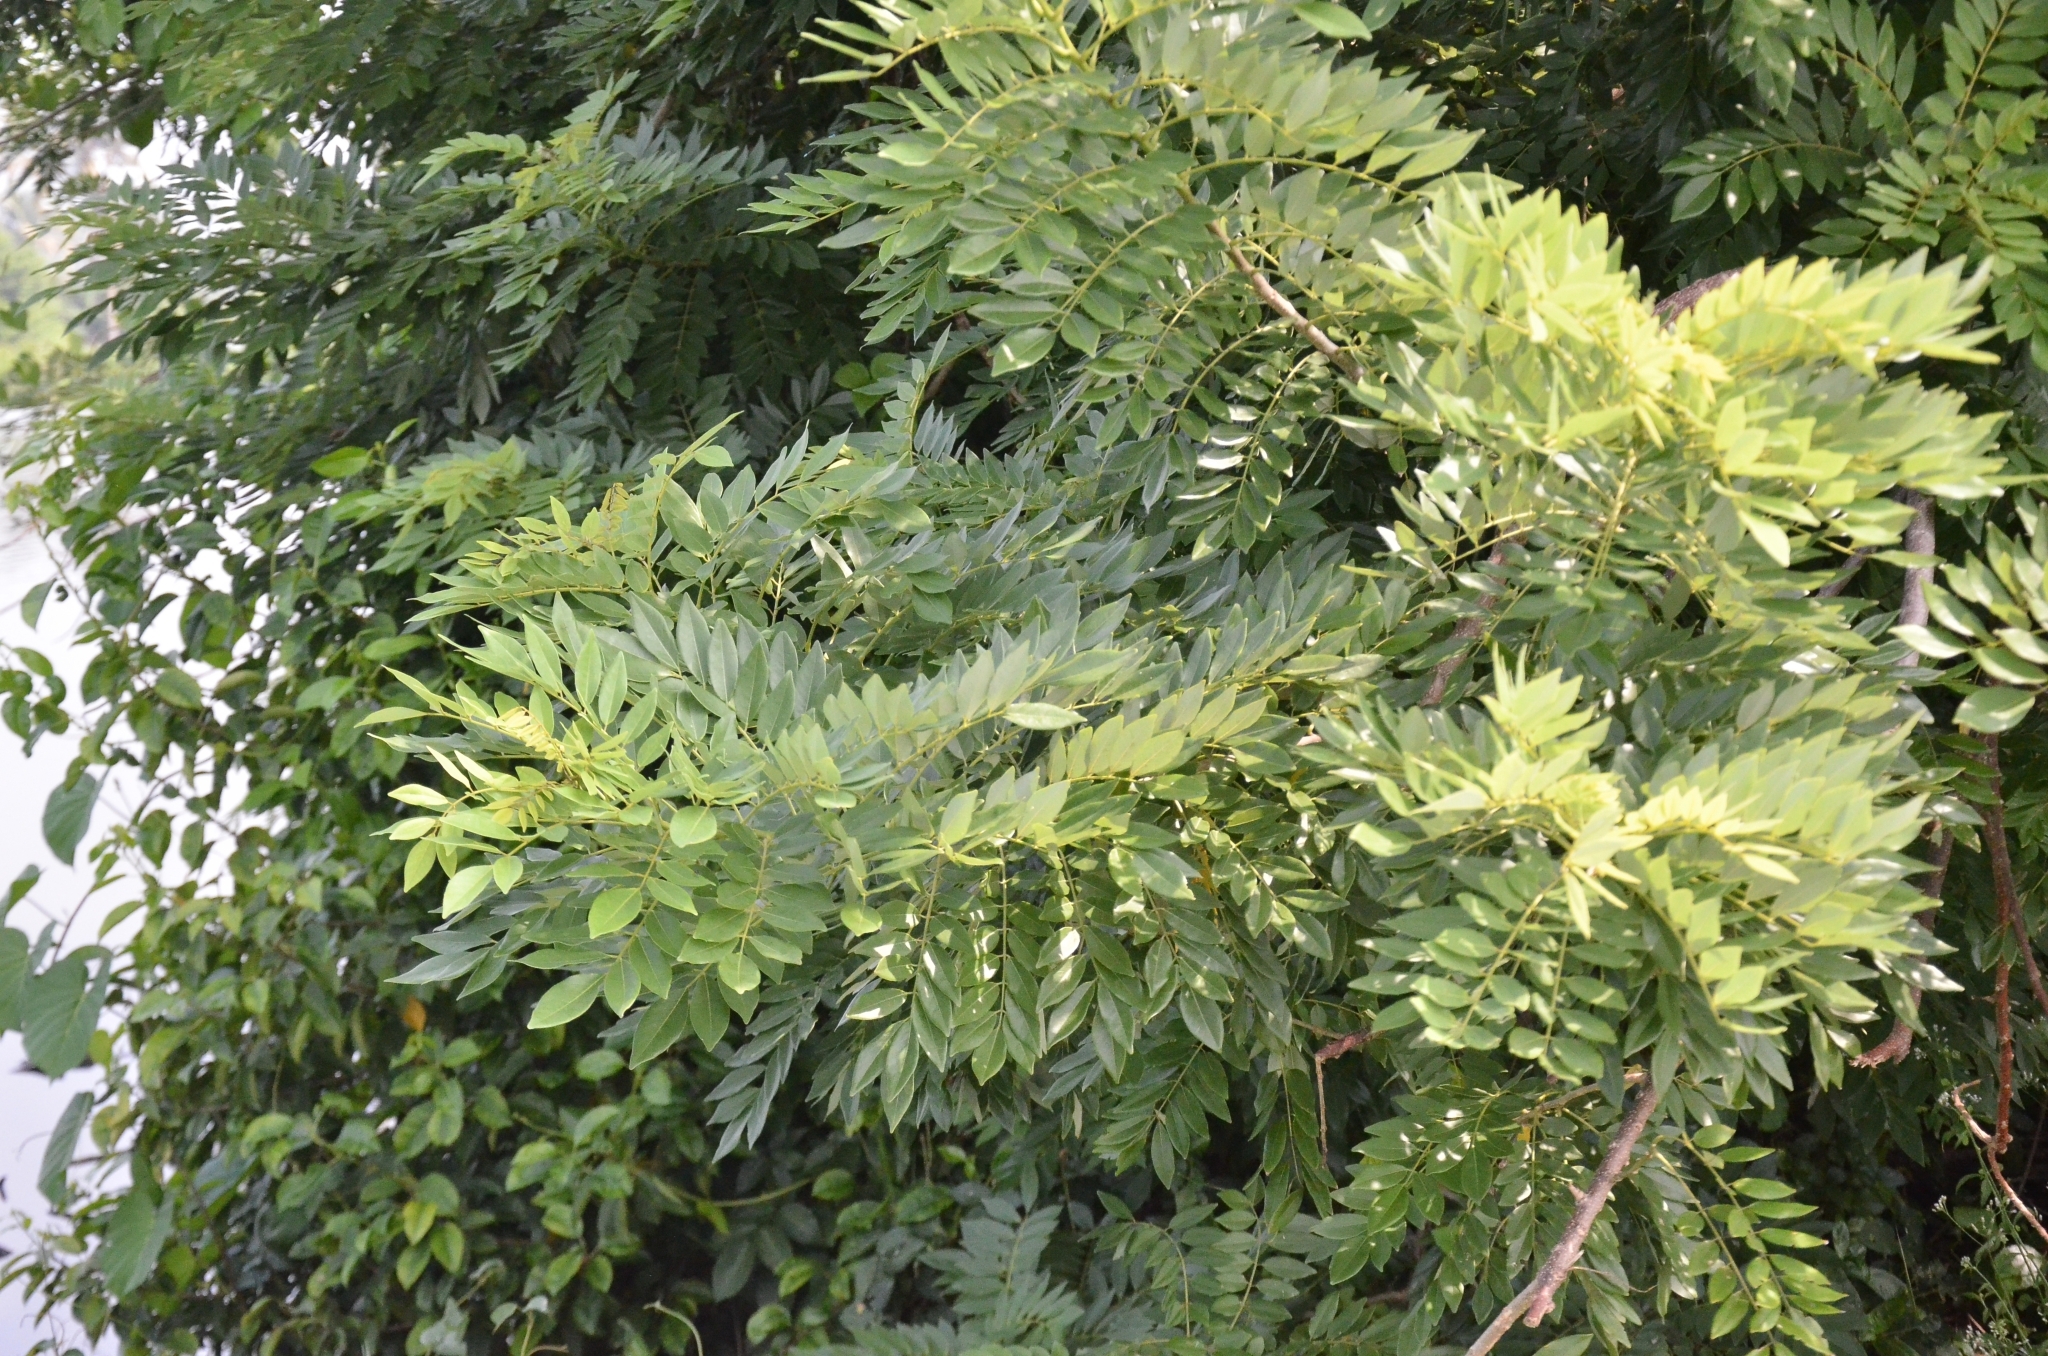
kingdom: Plantae
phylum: Tracheophyta
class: Magnoliopsida
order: Fabales
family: Fabaceae
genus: Gliricidia
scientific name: Gliricidia sepium
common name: Quickstick
